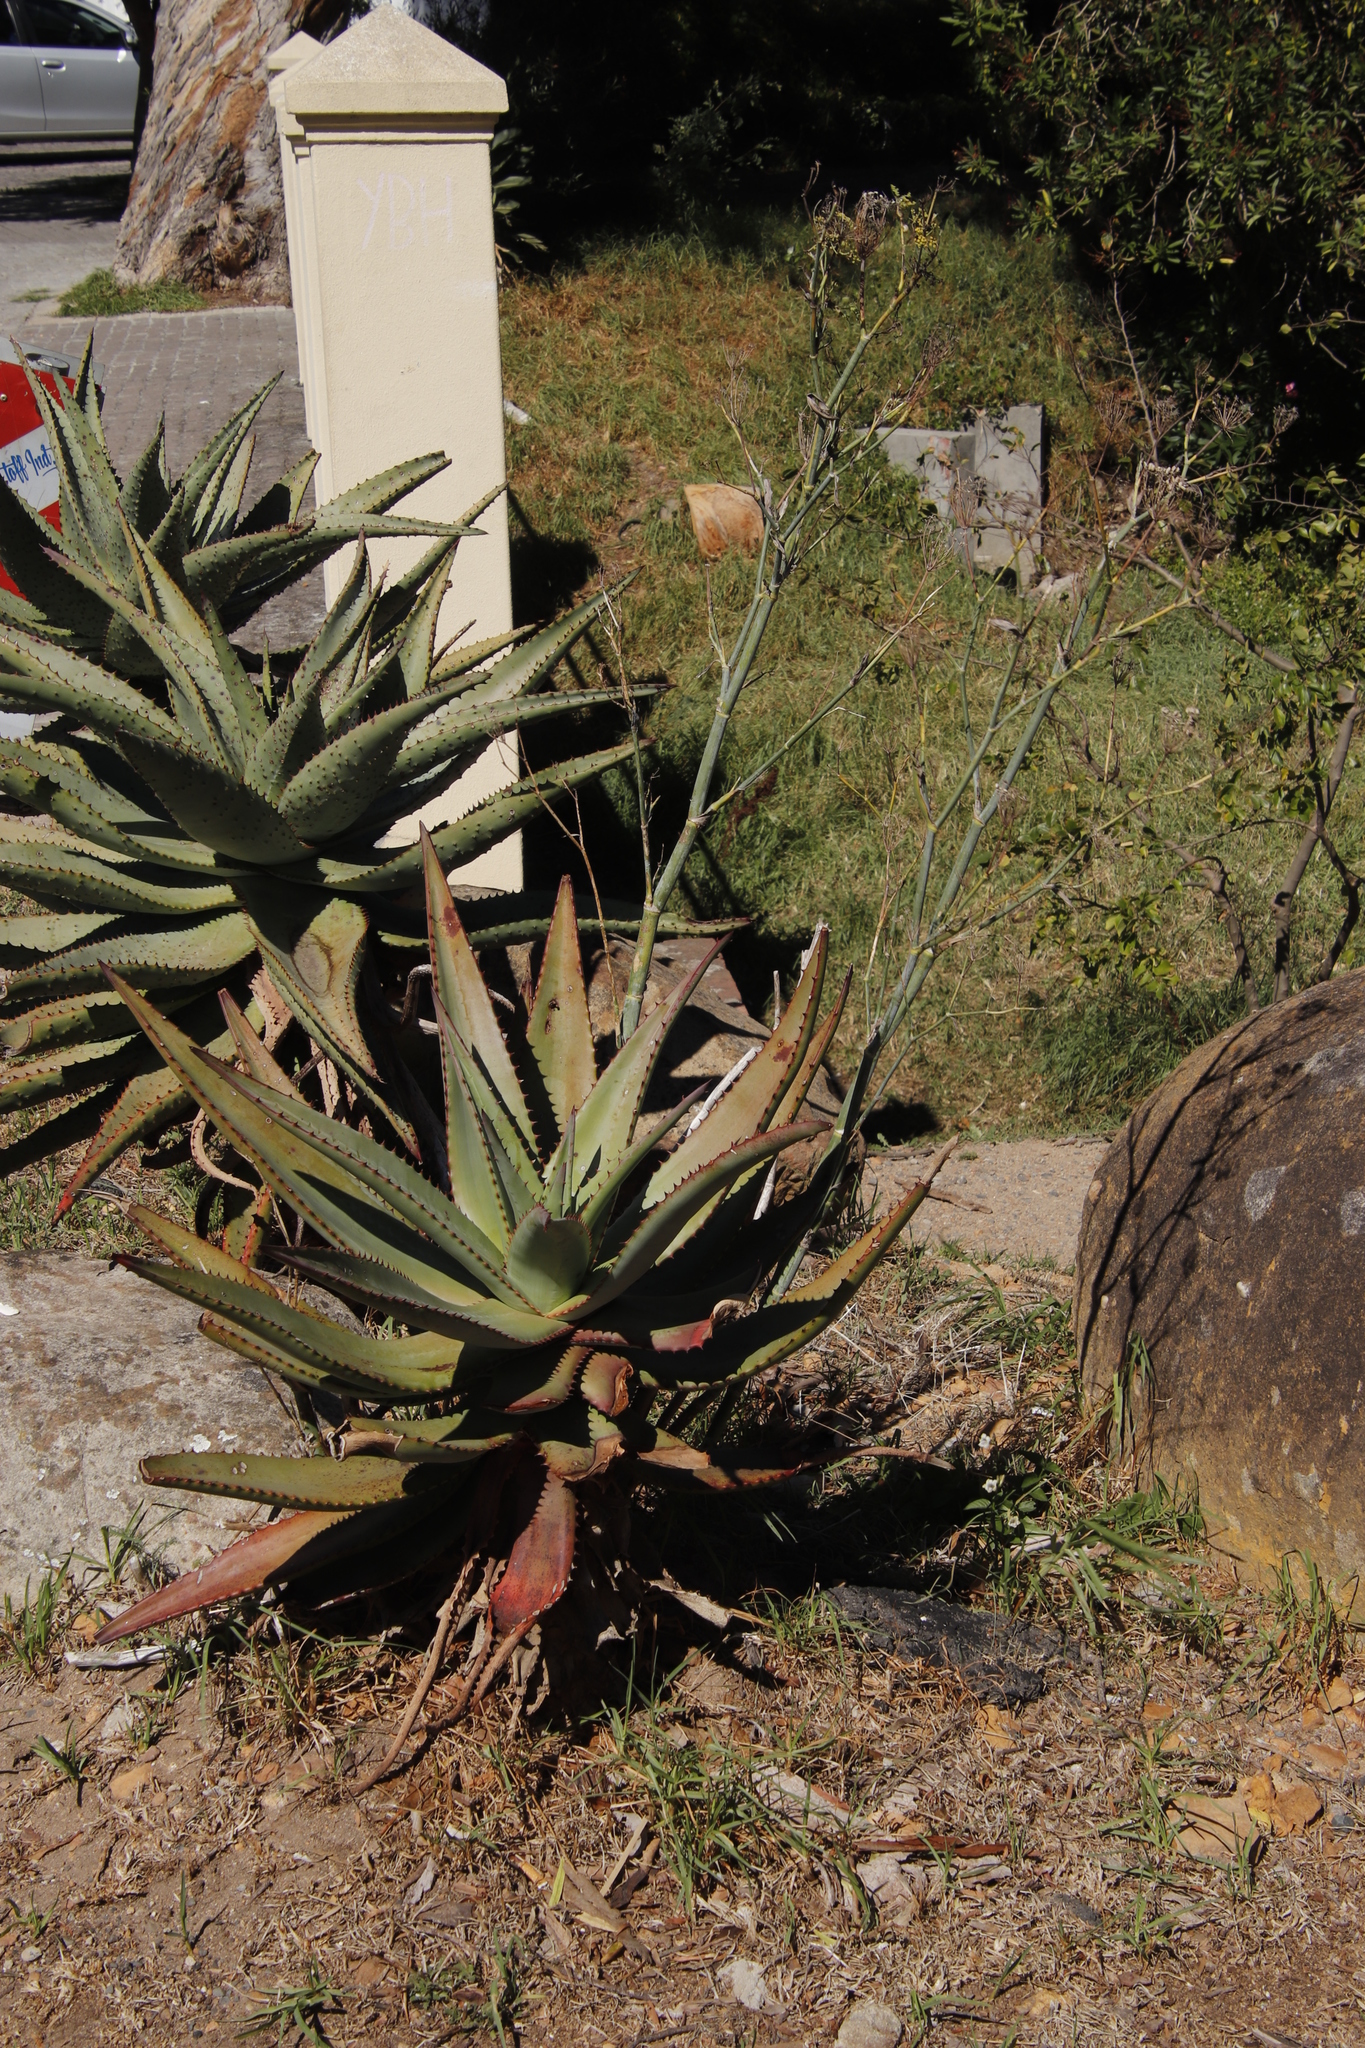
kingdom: Plantae
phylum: Tracheophyta
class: Magnoliopsida
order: Apiales
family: Apiaceae
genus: Foeniculum
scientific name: Foeniculum vulgare
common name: Fennel
